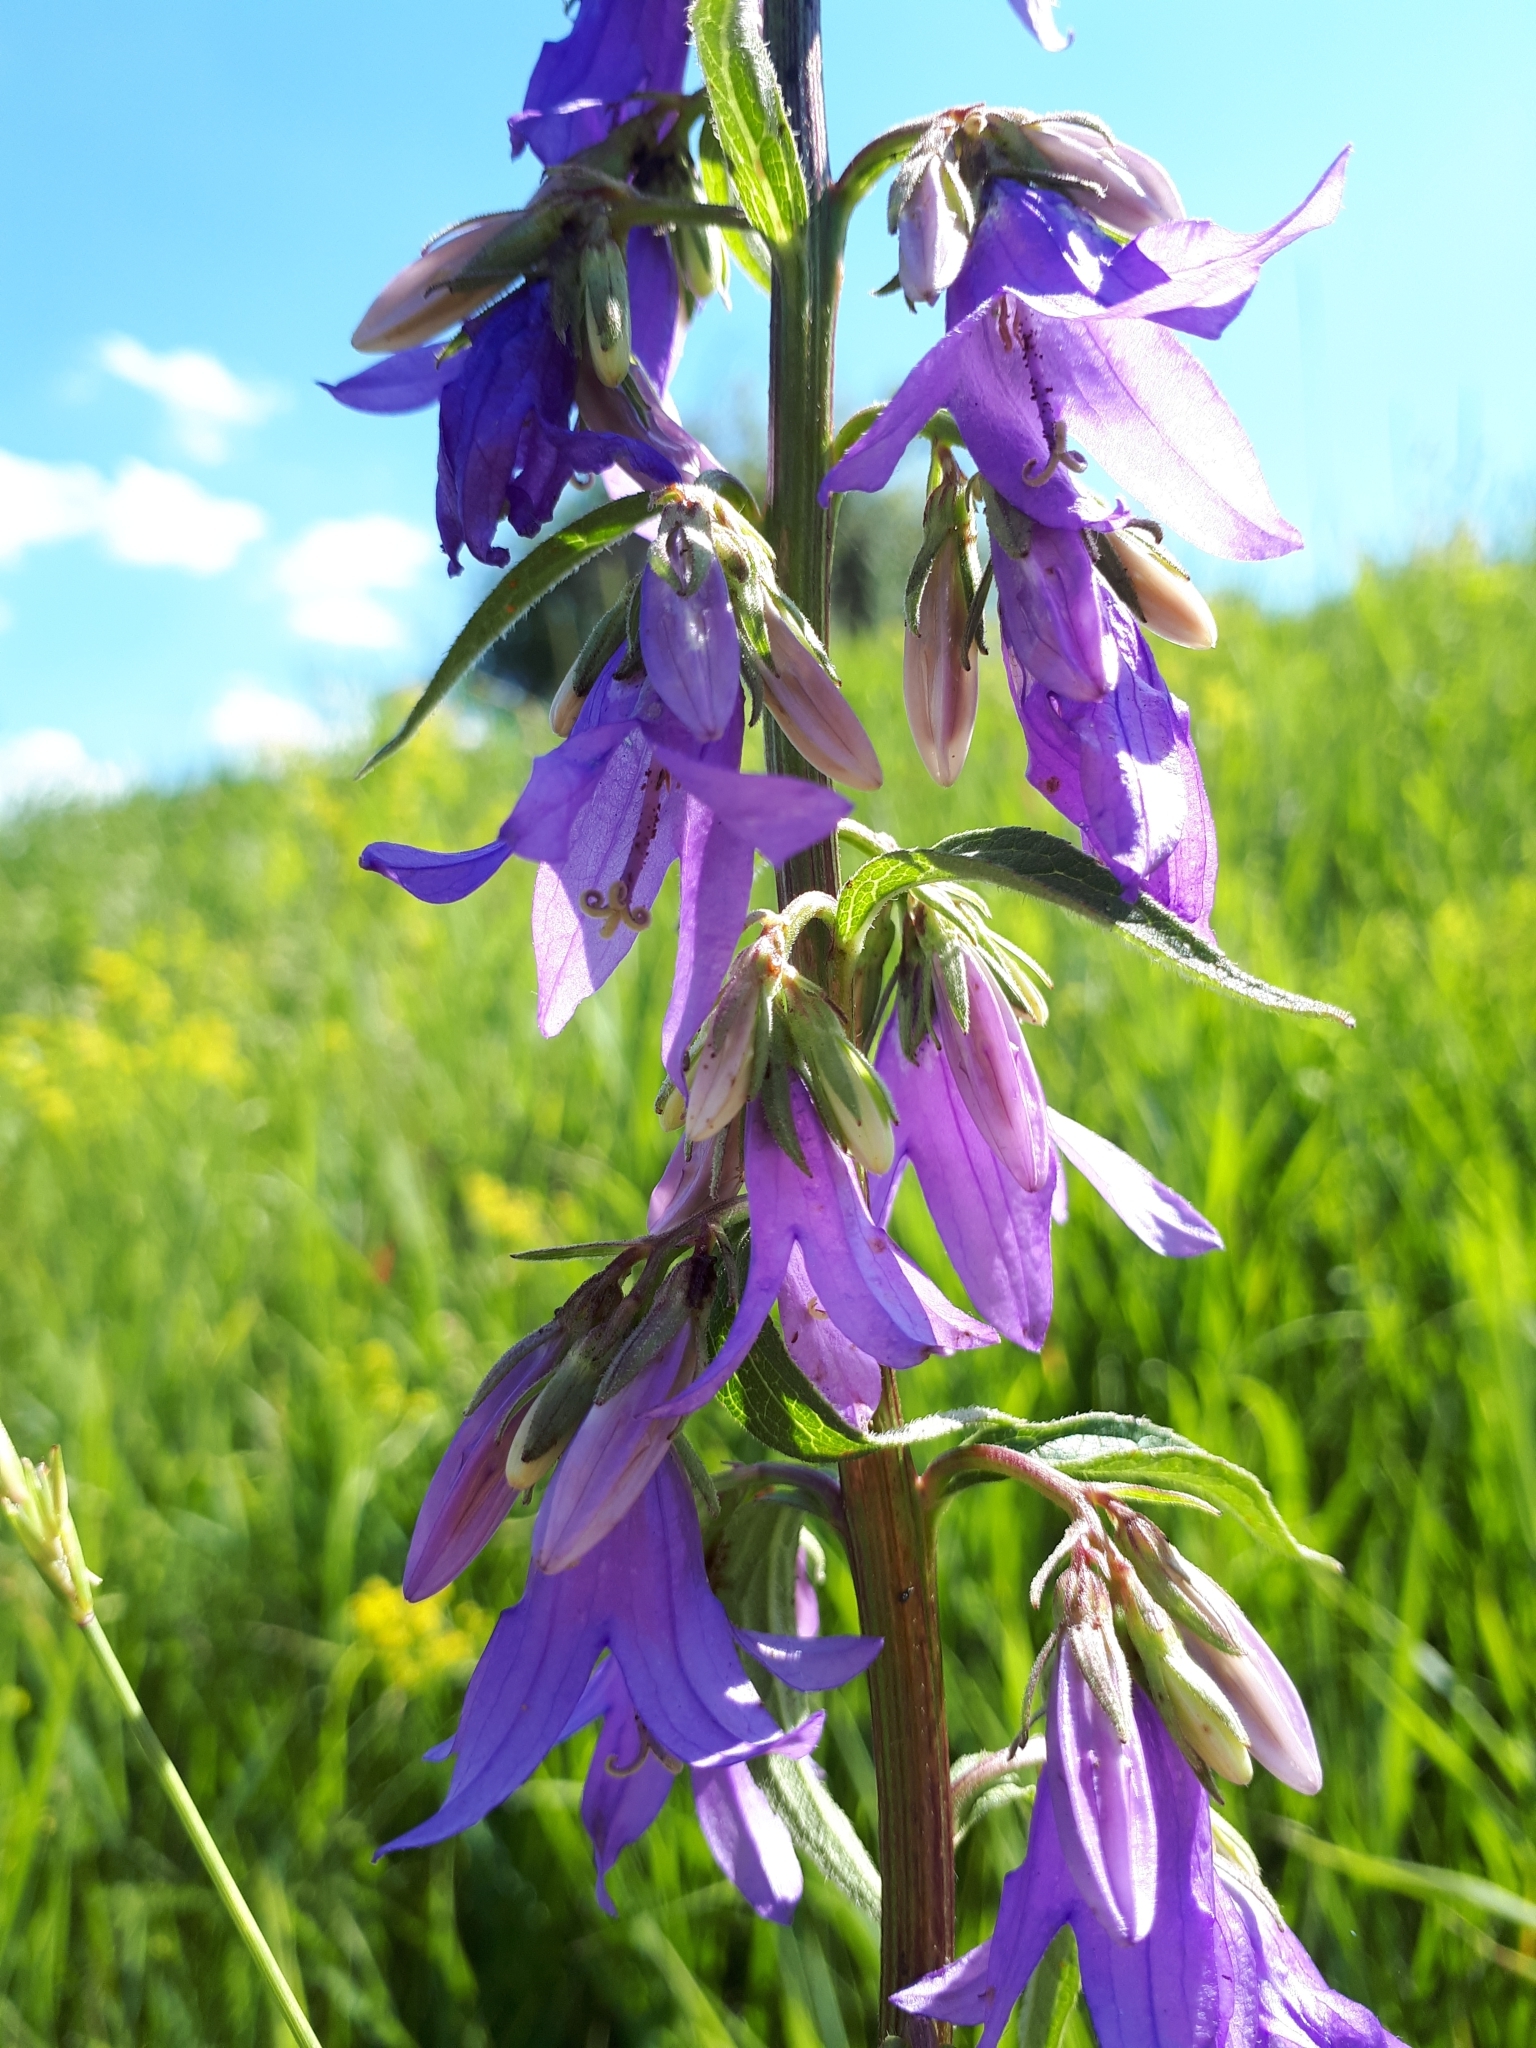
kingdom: Plantae
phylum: Tracheophyta
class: Magnoliopsida
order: Asterales
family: Campanulaceae
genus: Campanula
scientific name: Campanula rapunculoides
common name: Creeping bellflower
